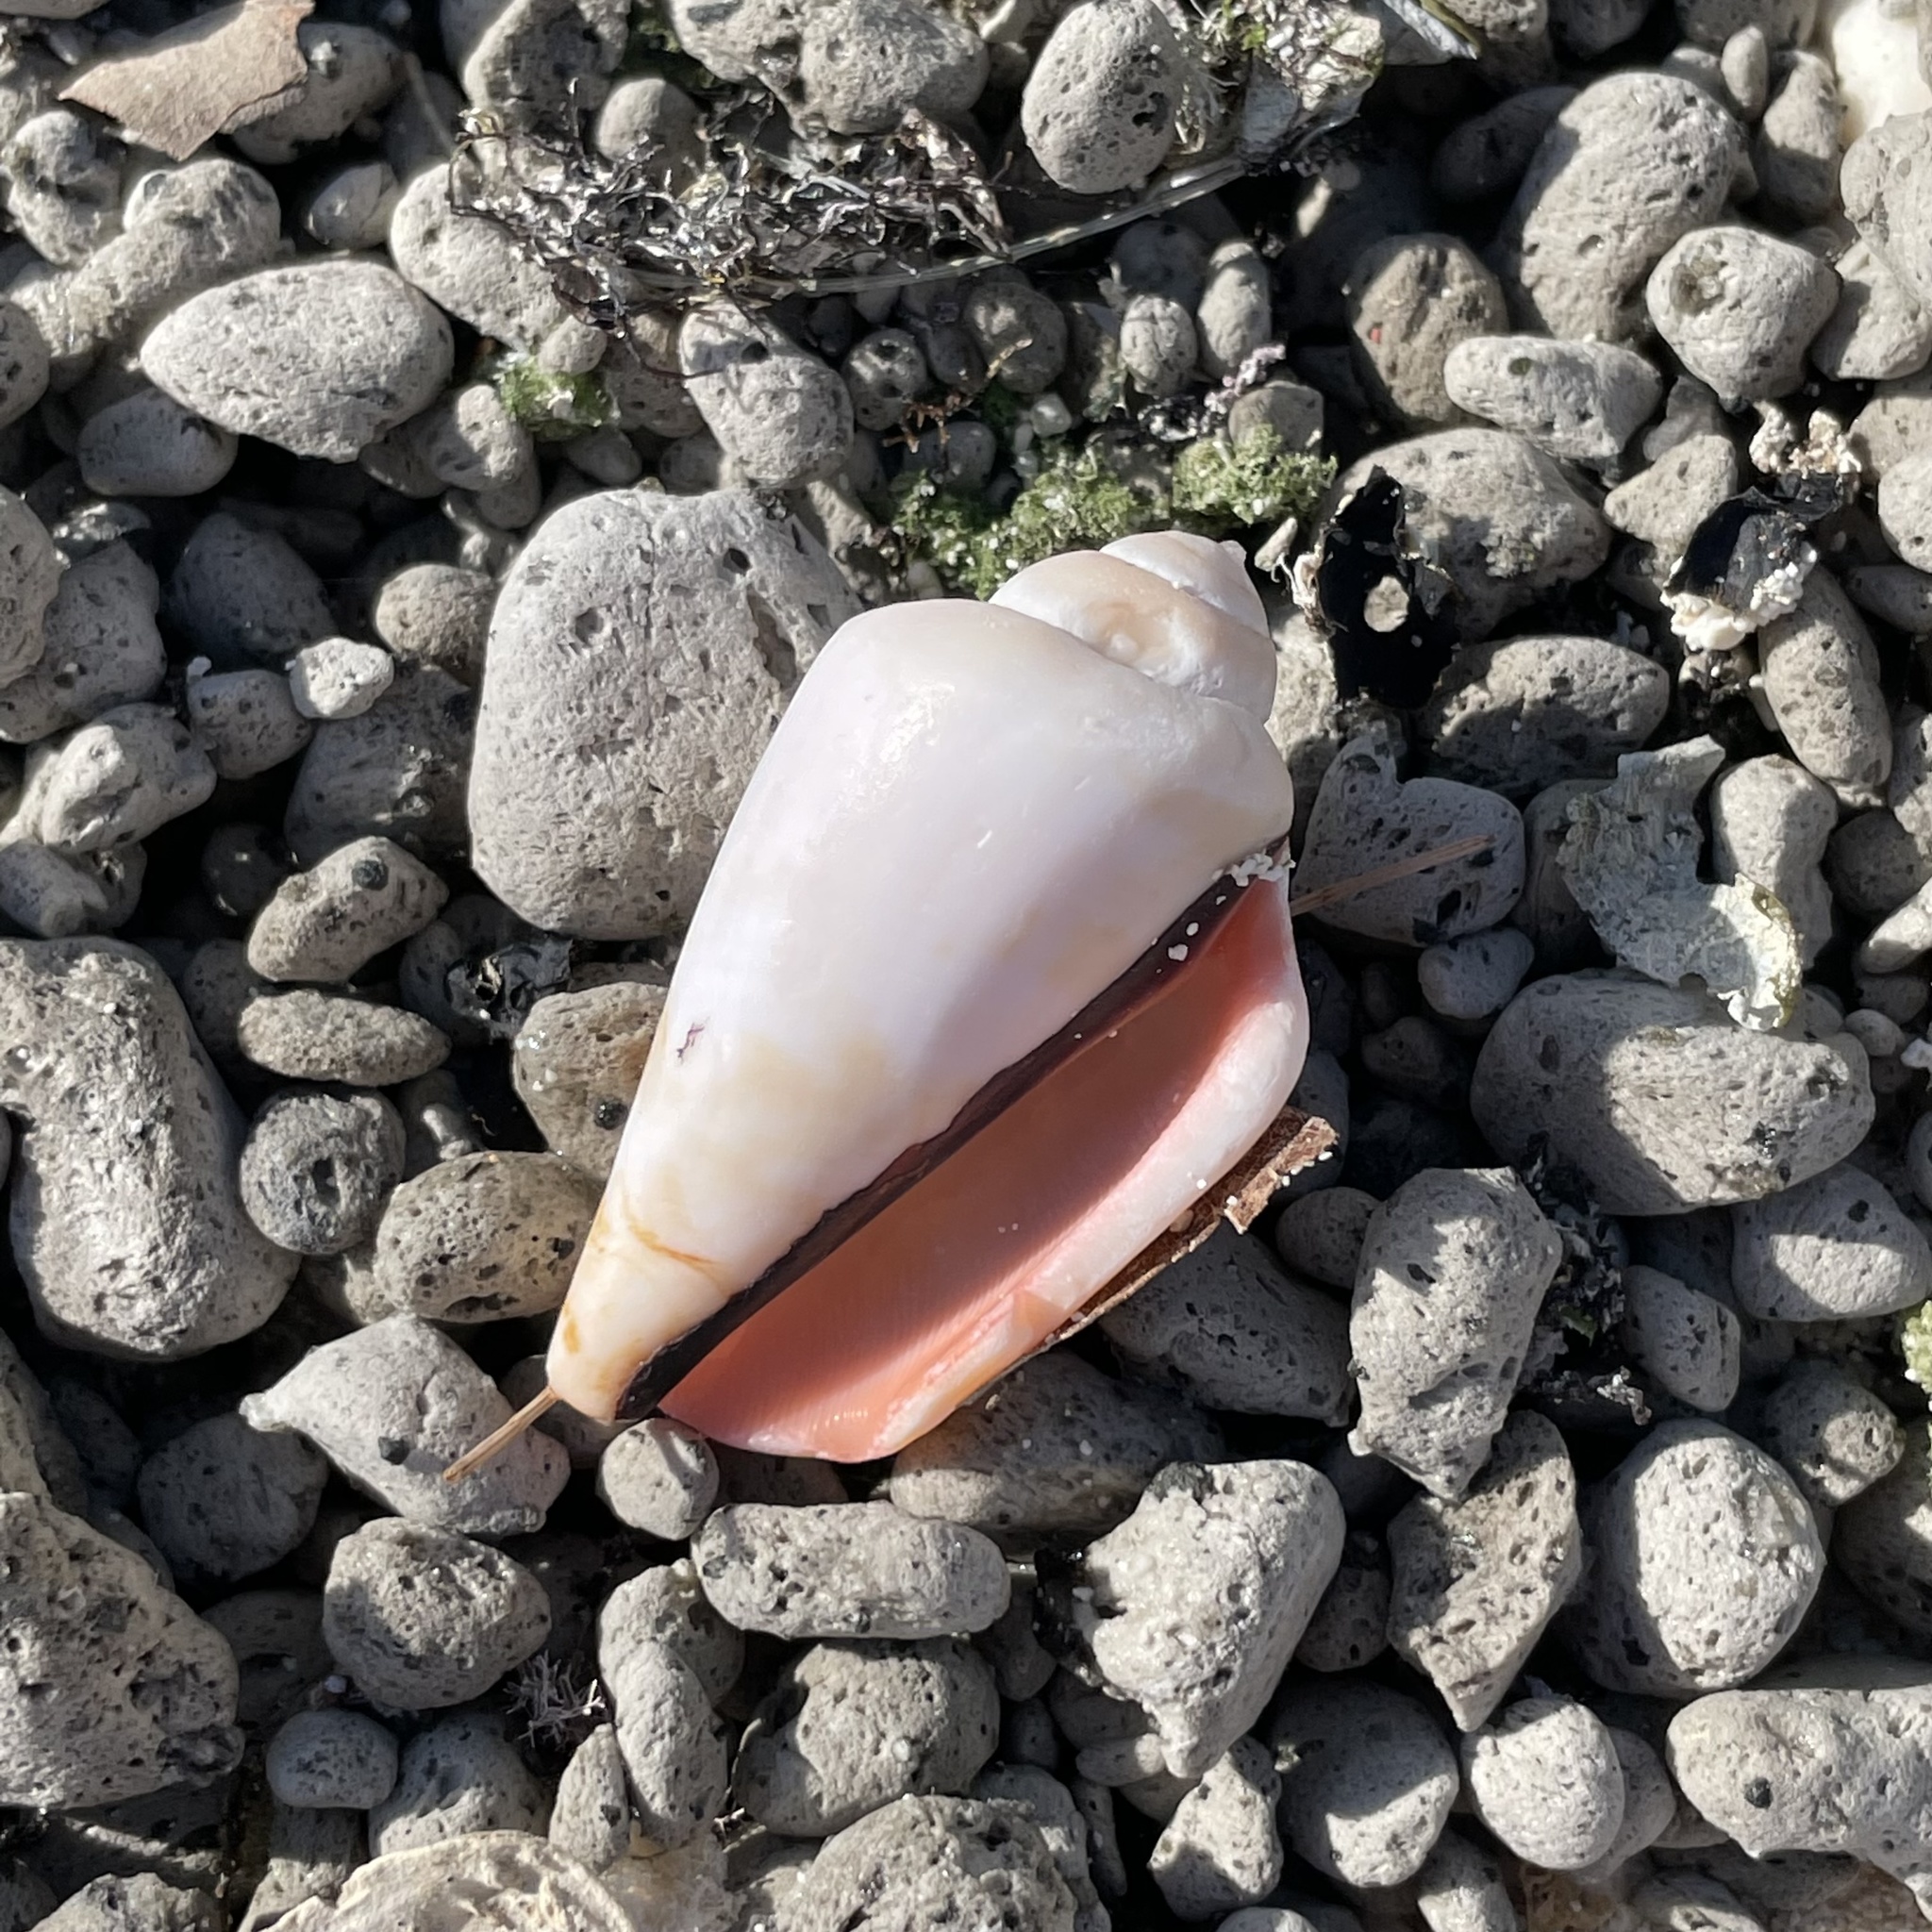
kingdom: Animalia
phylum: Mollusca
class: Gastropoda
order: Littorinimorpha
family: Strombidae
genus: Conomurex
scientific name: Conomurex luhuanus
